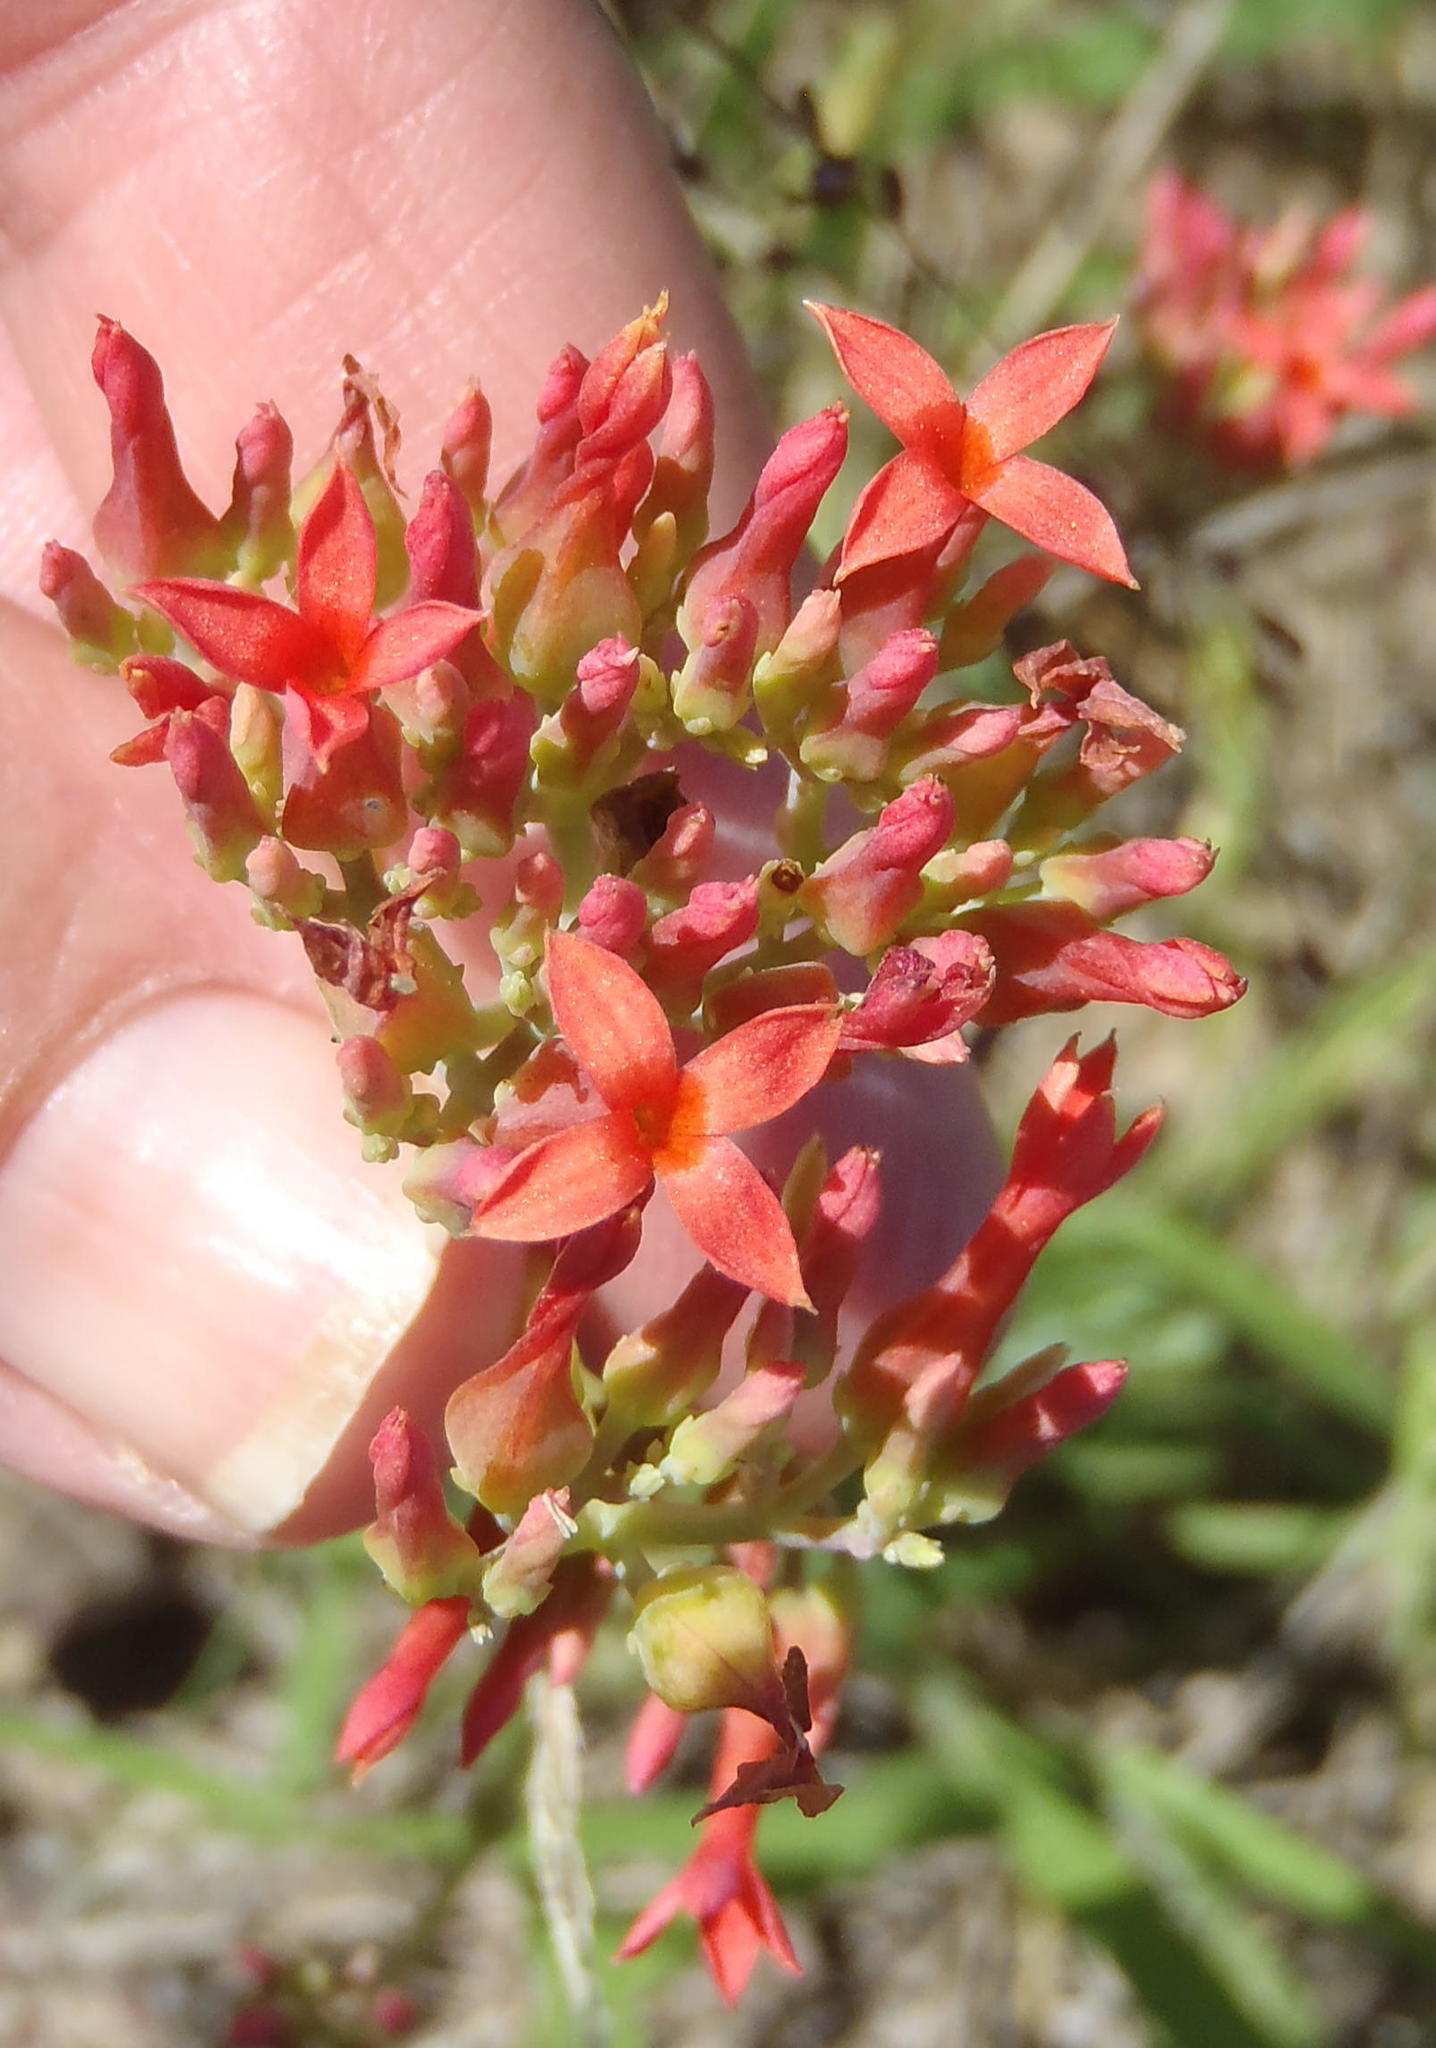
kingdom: Plantae
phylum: Tracheophyta
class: Magnoliopsida
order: Saxifragales
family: Crassulaceae
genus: Kalanchoe
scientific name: Kalanchoe rotundifolia
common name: Common kalanchoe
